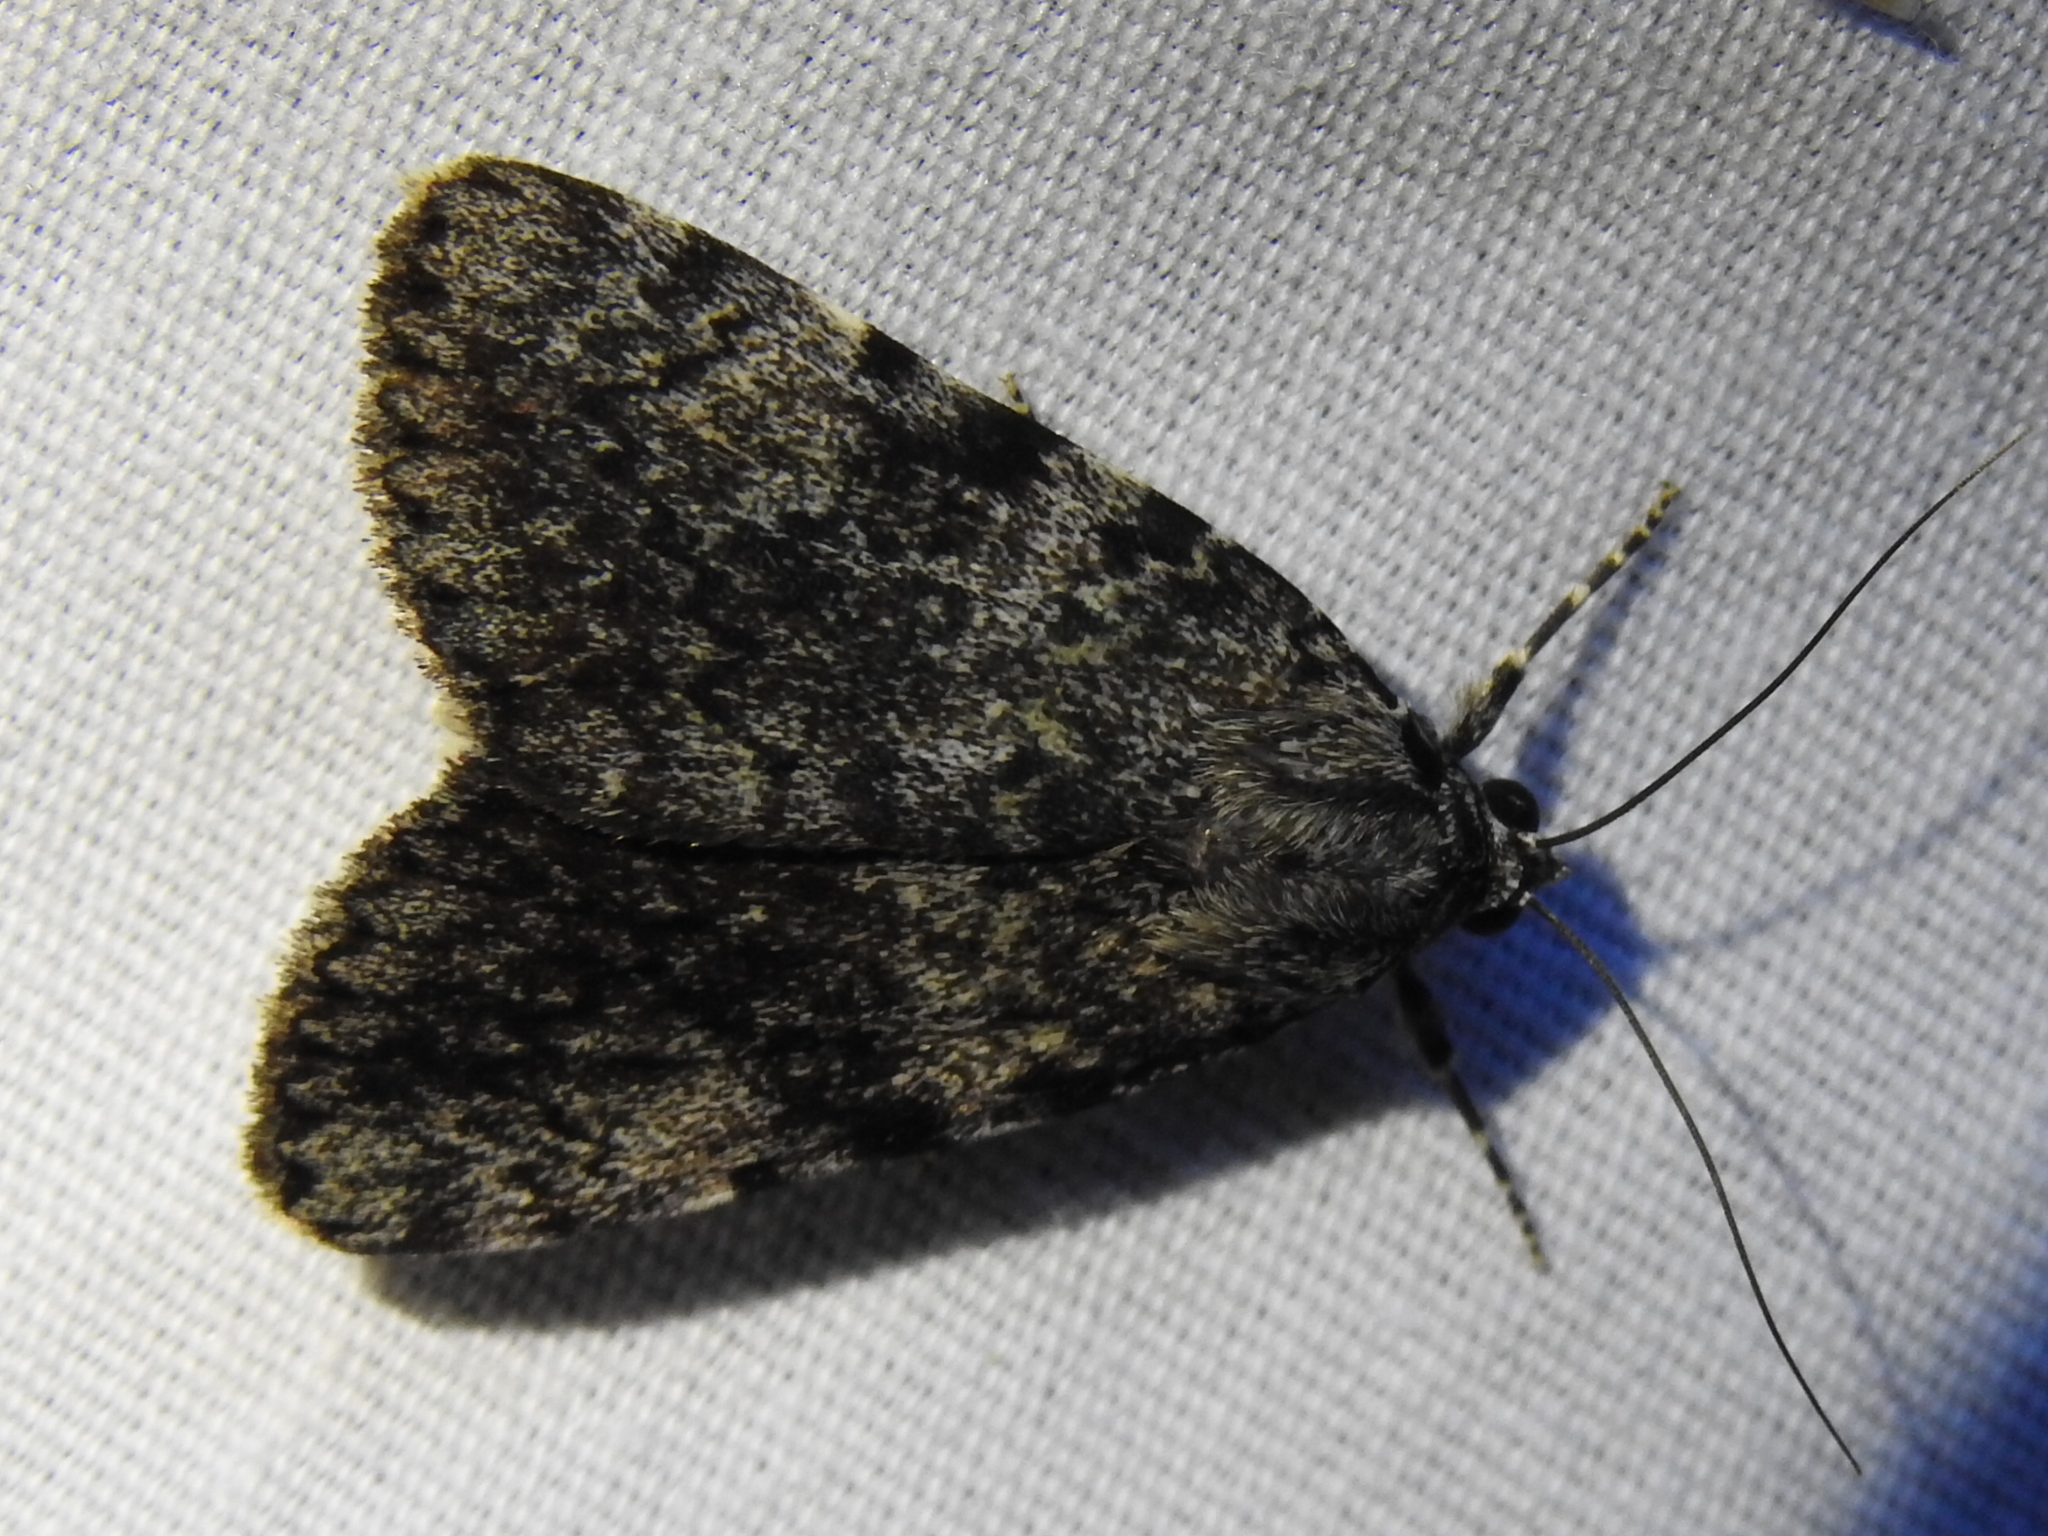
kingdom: Animalia
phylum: Arthropoda
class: Insecta
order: Lepidoptera
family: Erebidae
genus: Catocala
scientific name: Catocala lineella
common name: Little lined underwing
